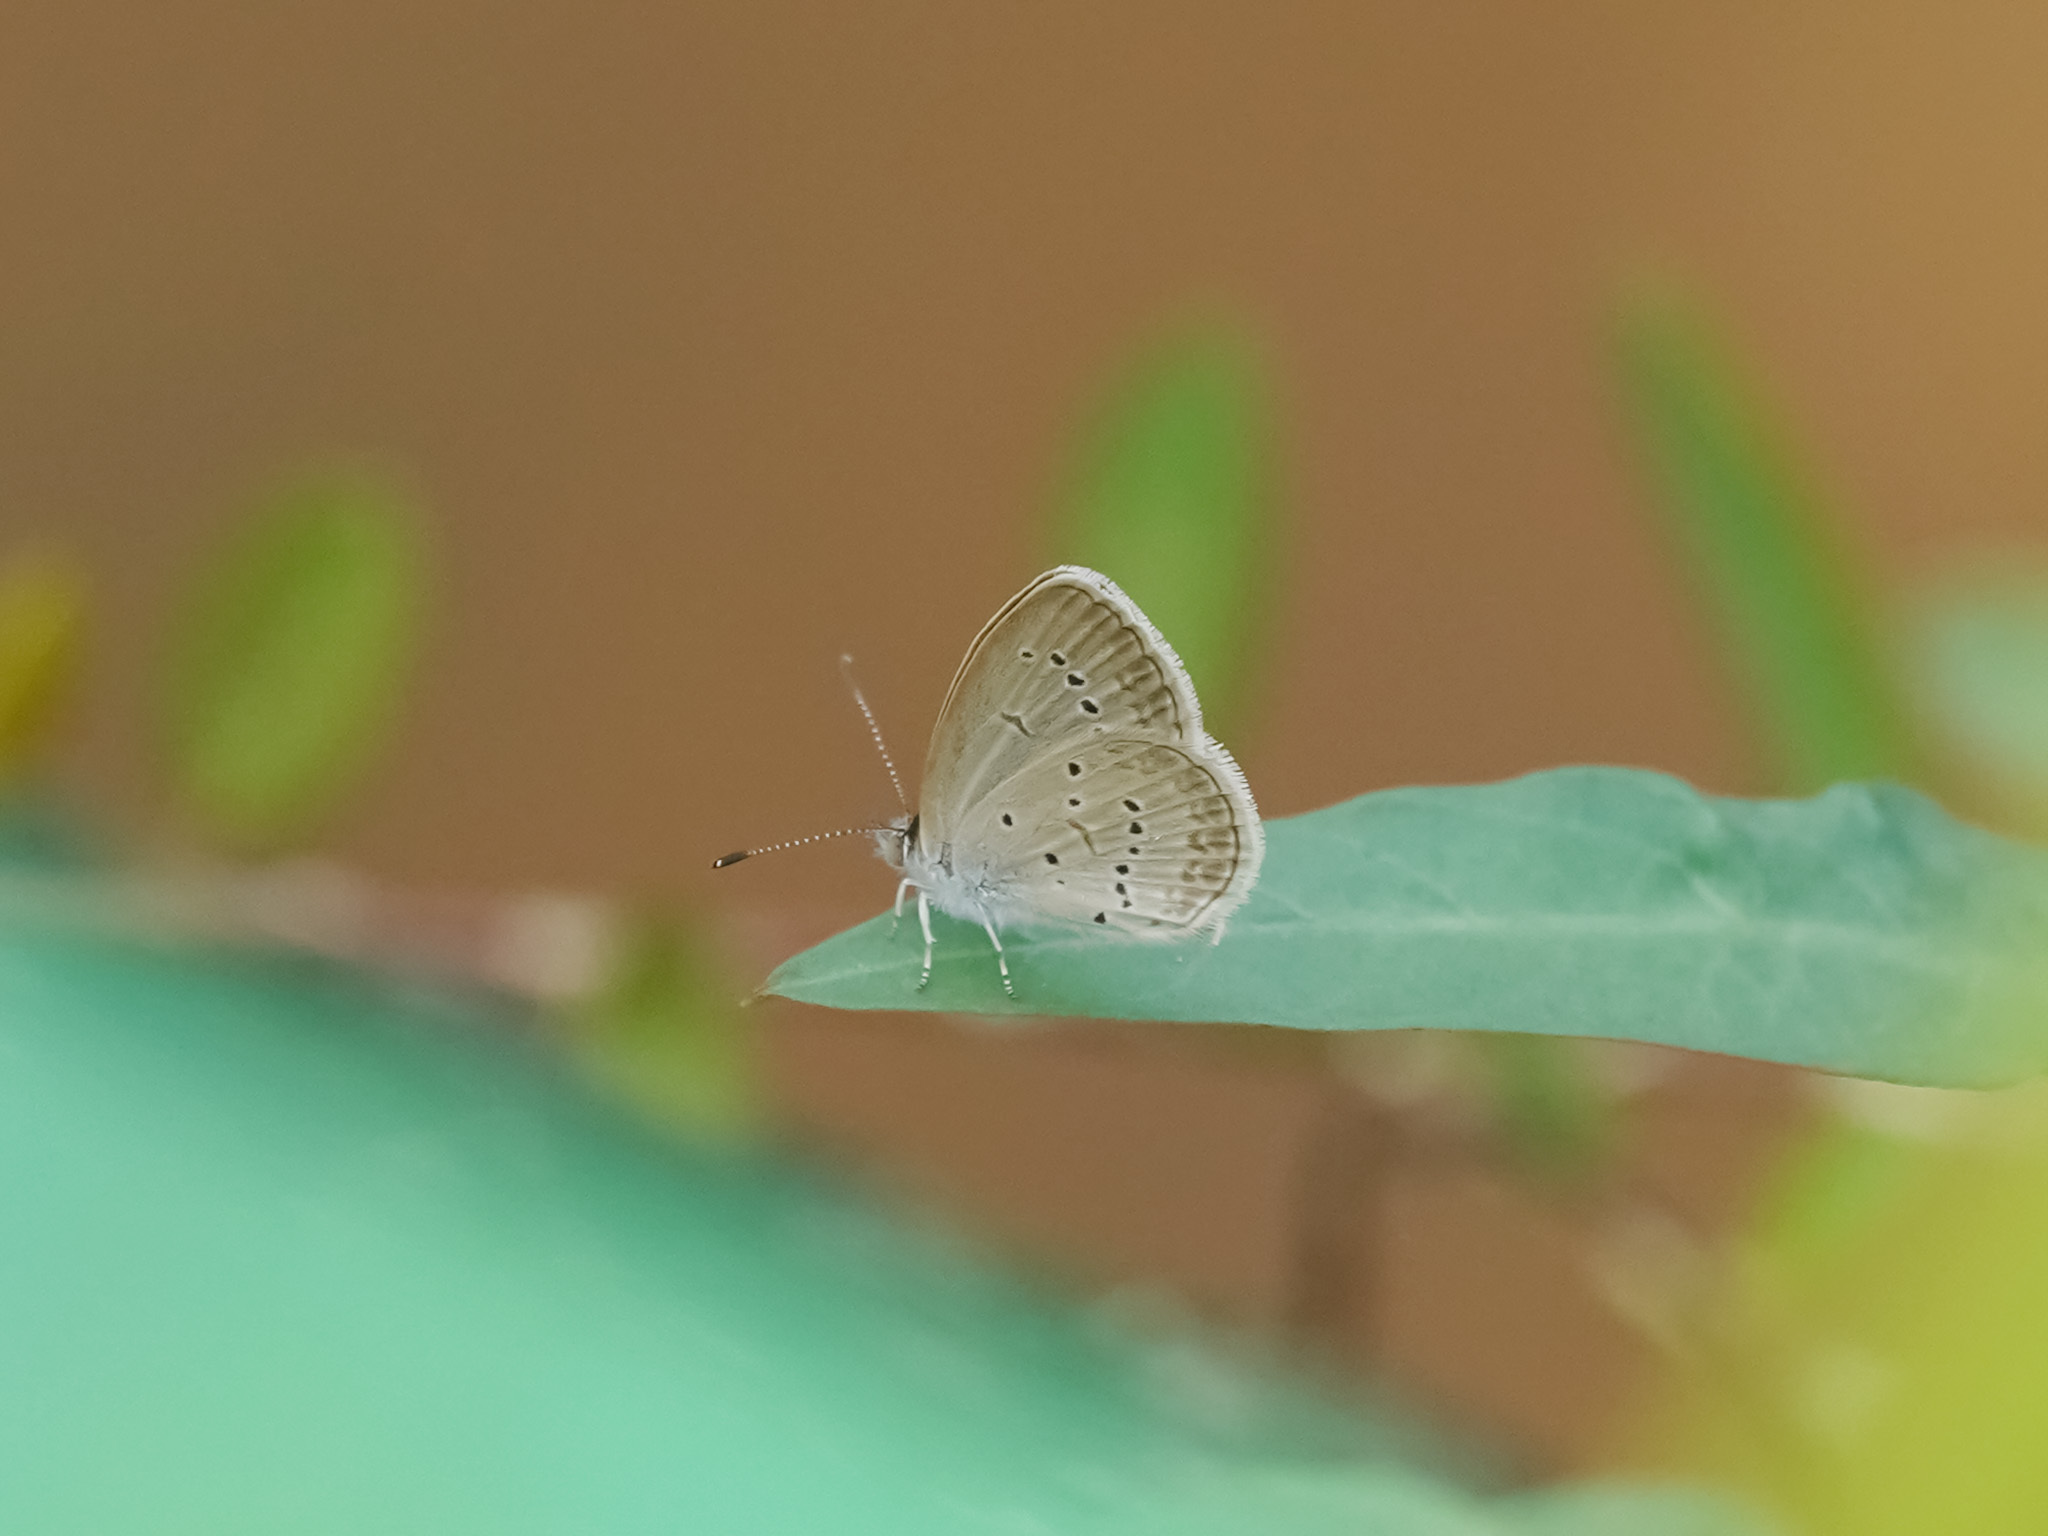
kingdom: Animalia
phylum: Arthropoda
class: Insecta
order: Lepidoptera
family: Lycaenidae
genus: Zizina
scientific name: Zizina otis
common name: Lesser grass blue
